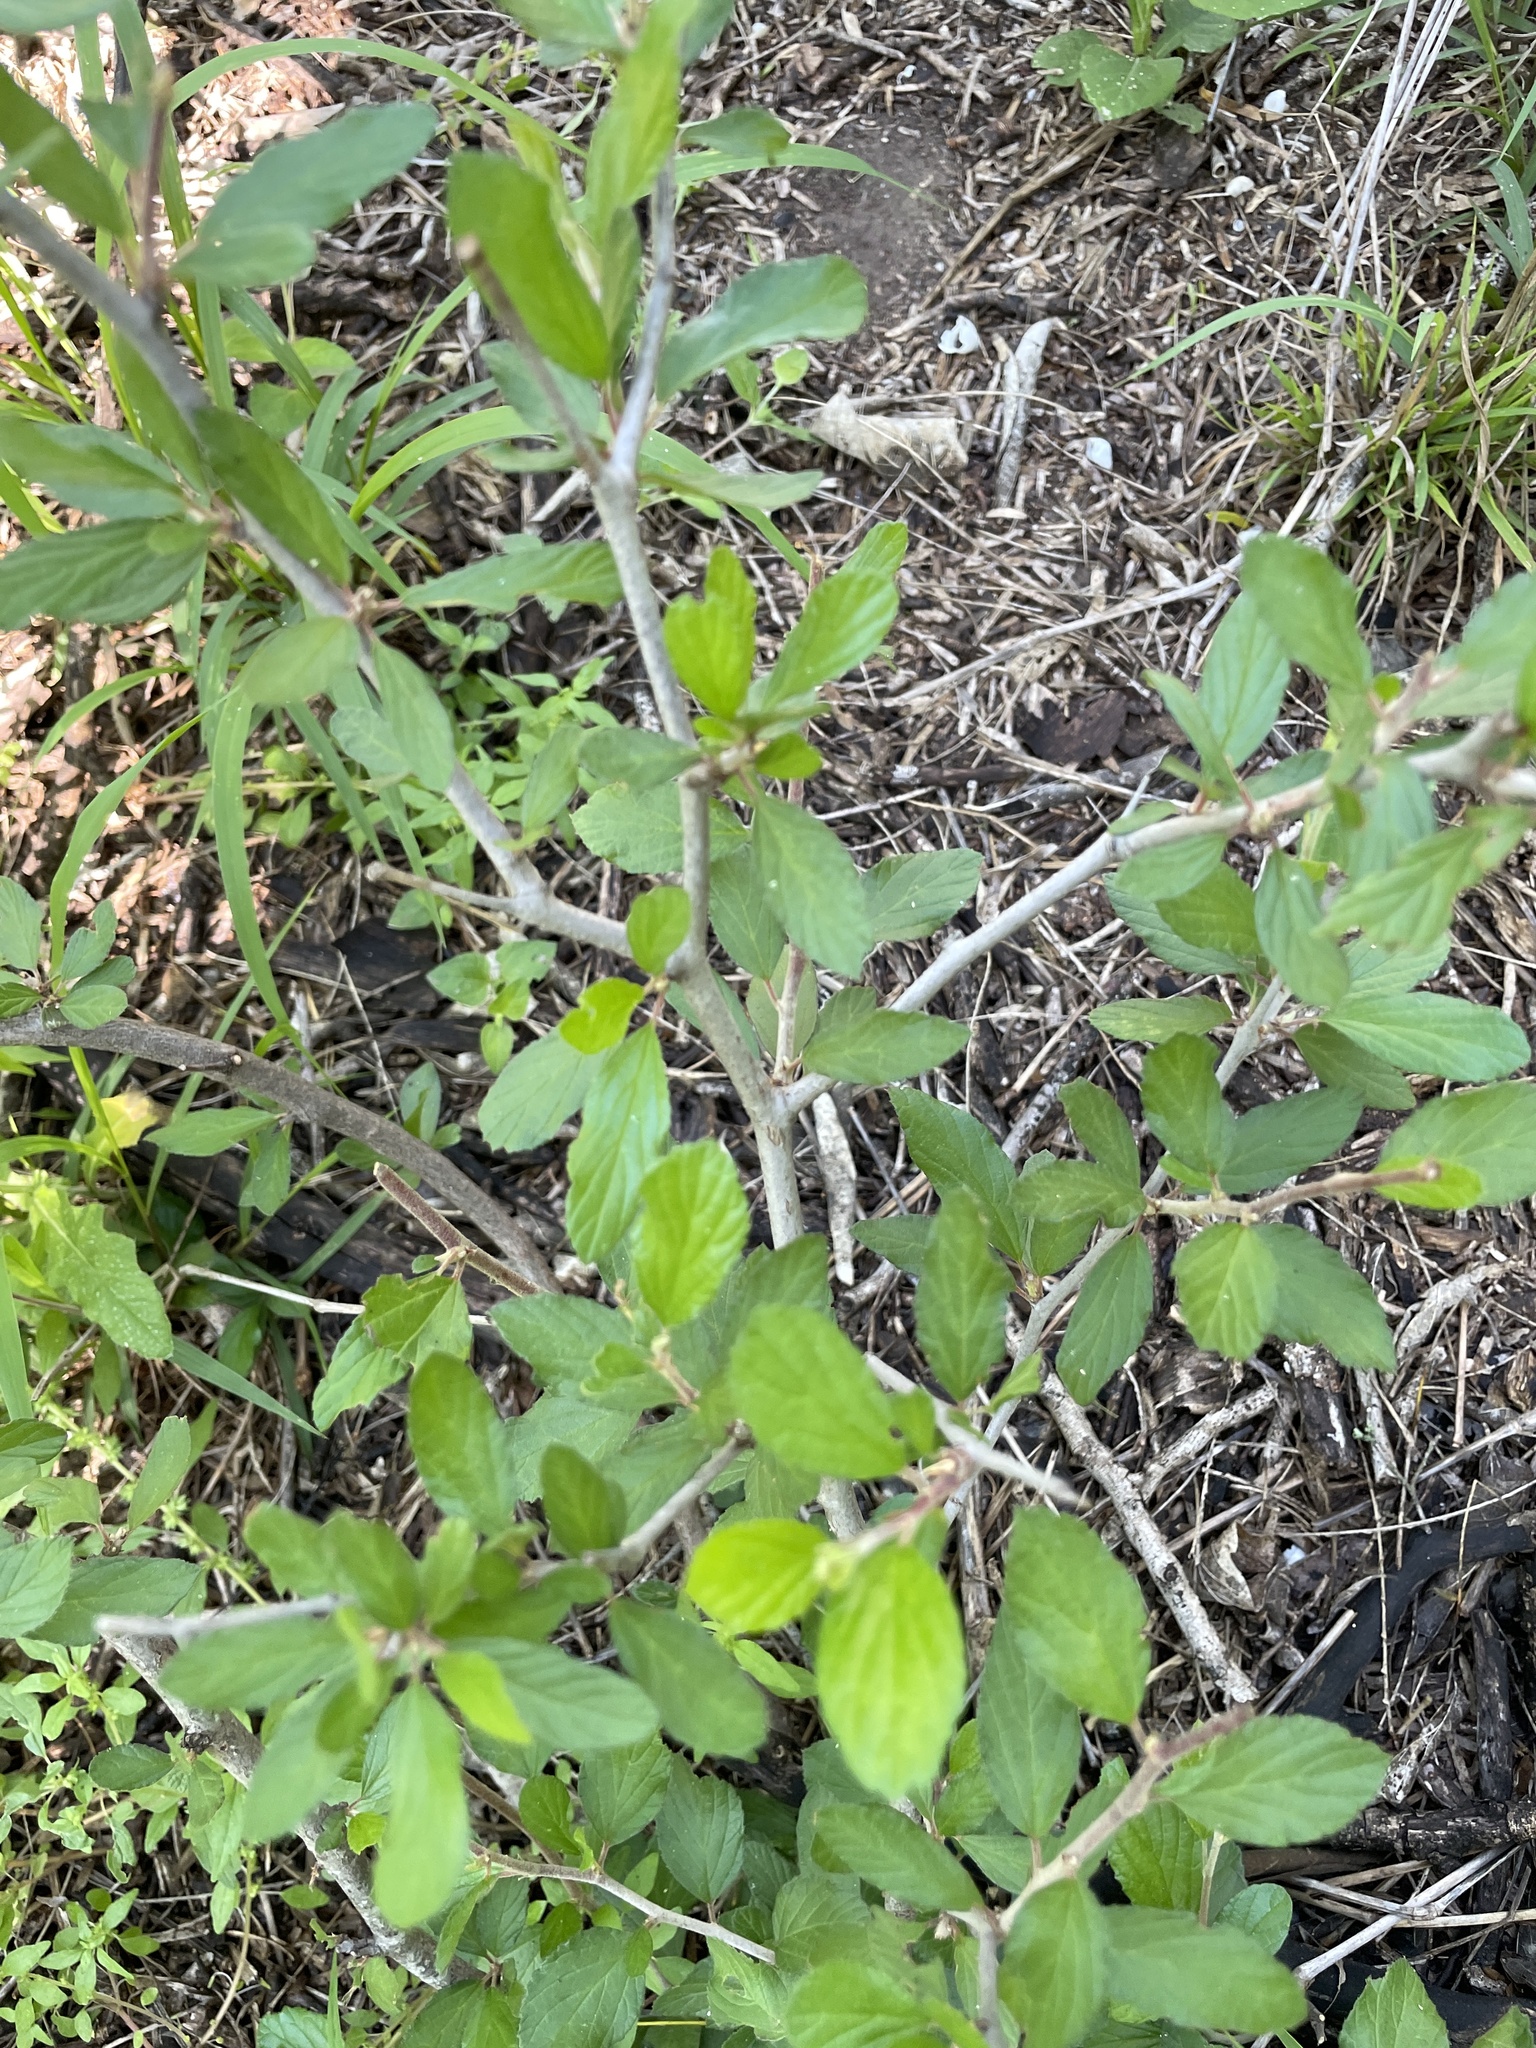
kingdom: Plantae
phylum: Tracheophyta
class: Magnoliopsida
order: Rosales
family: Rhamnaceae
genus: Colubrina
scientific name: Colubrina texensis
